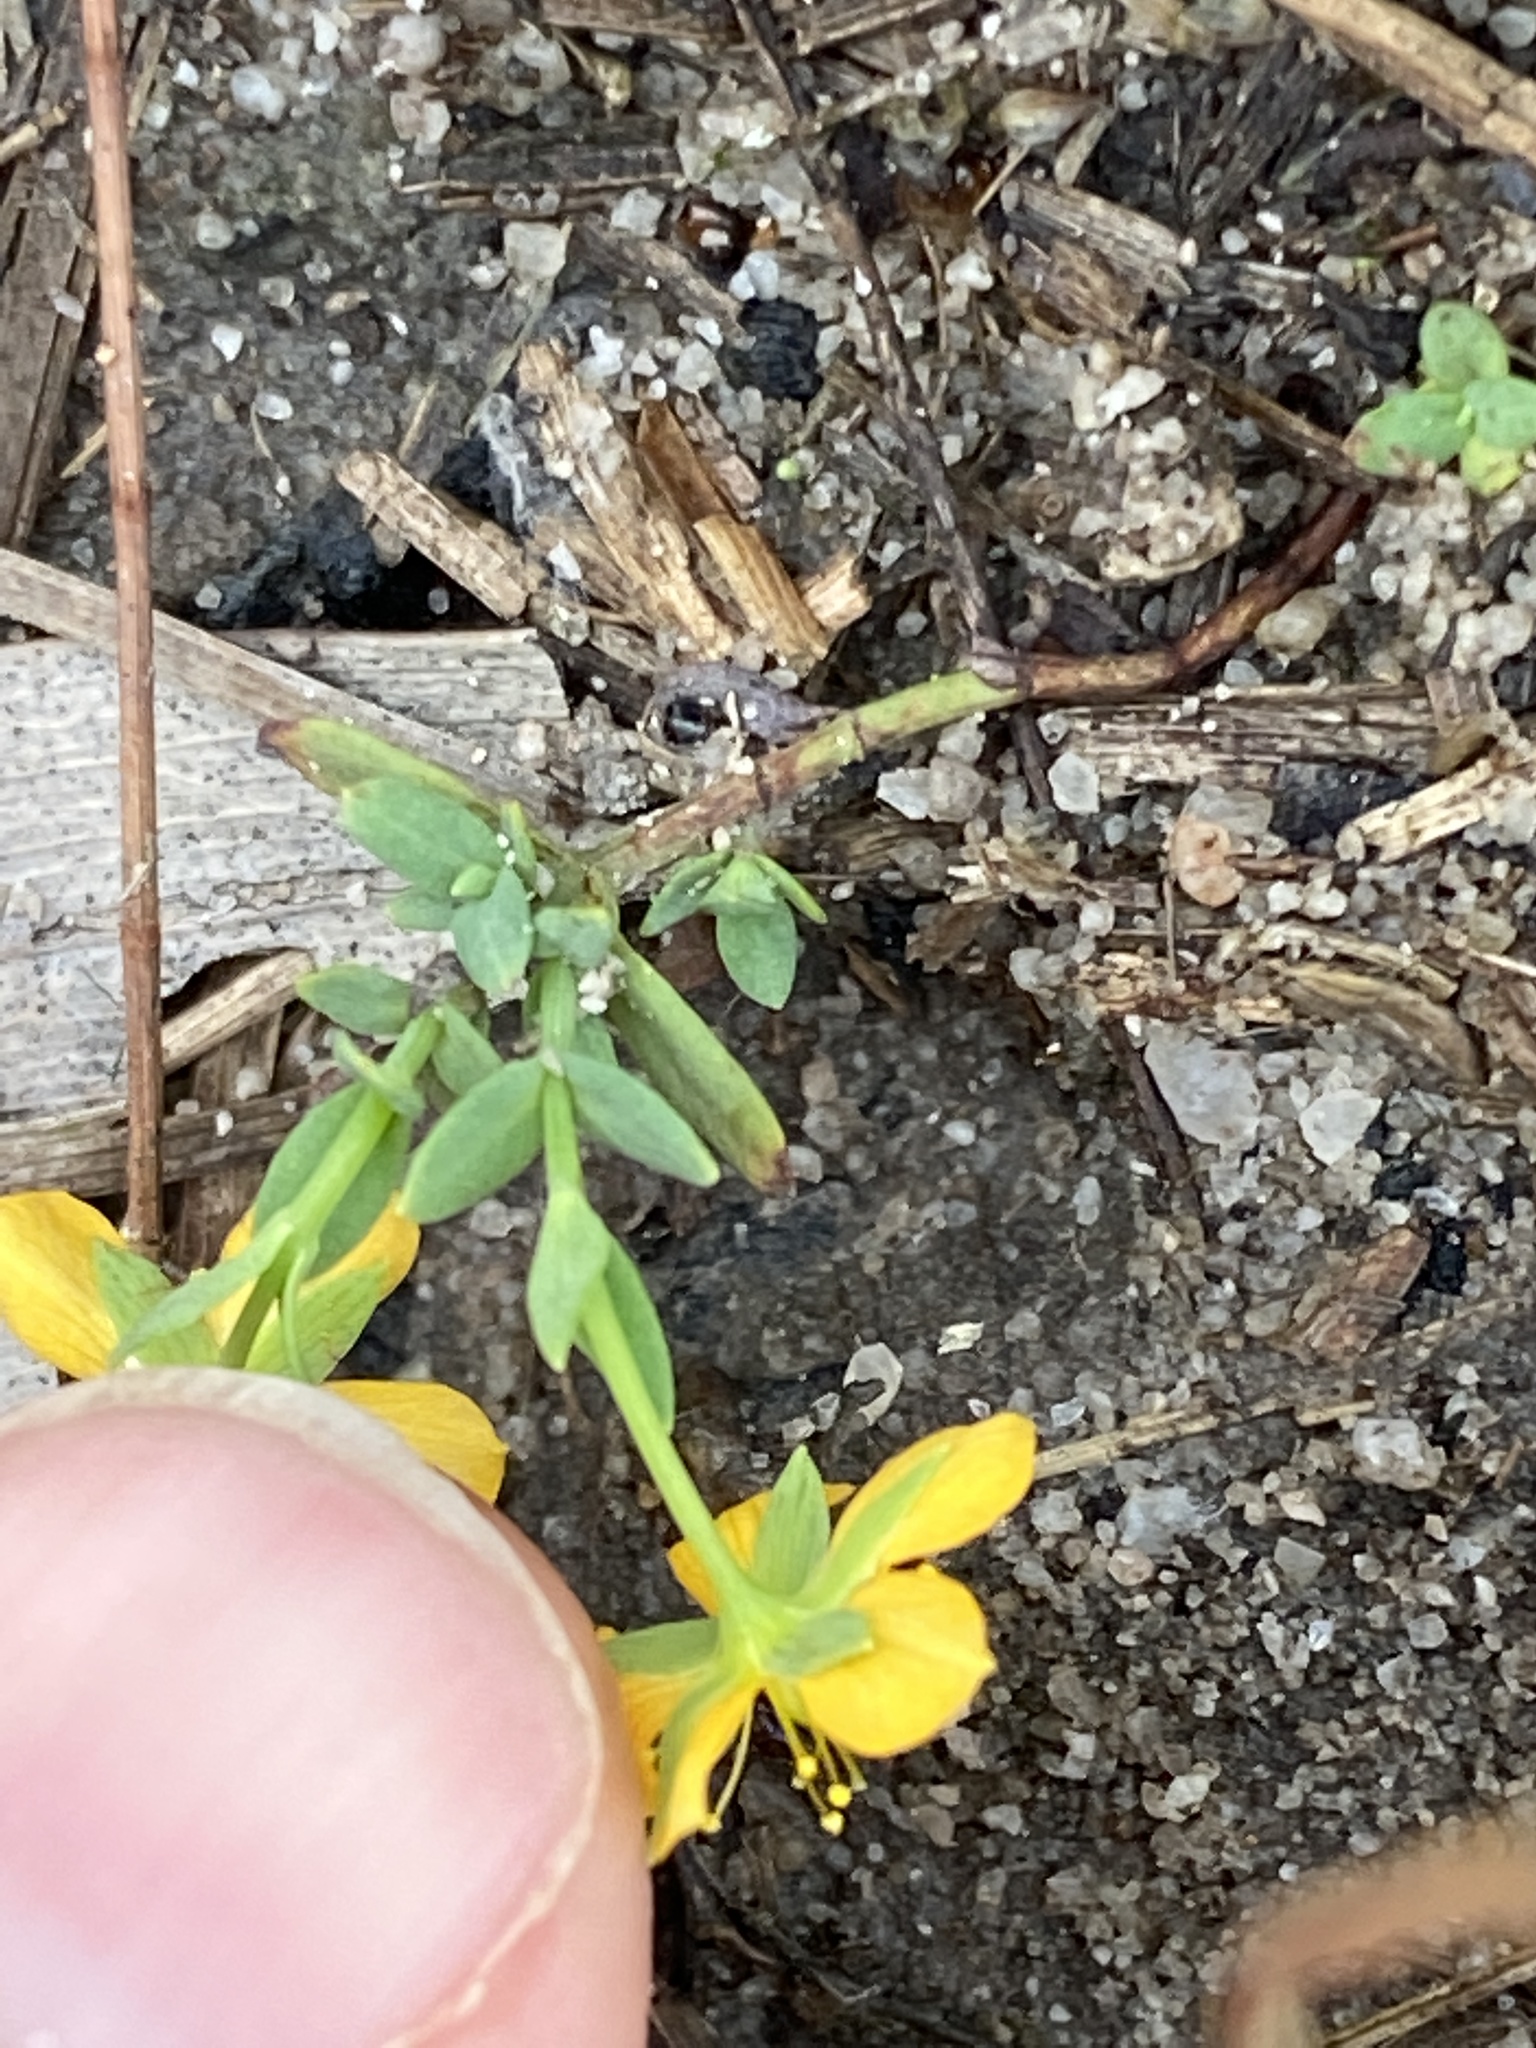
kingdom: Plantae
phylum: Tracheophyta
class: Magnoliopsida
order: Malpighiales
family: Hypericaceae
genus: Hypericum
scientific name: Hypericum gramineum
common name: Grassy st. johnswort
